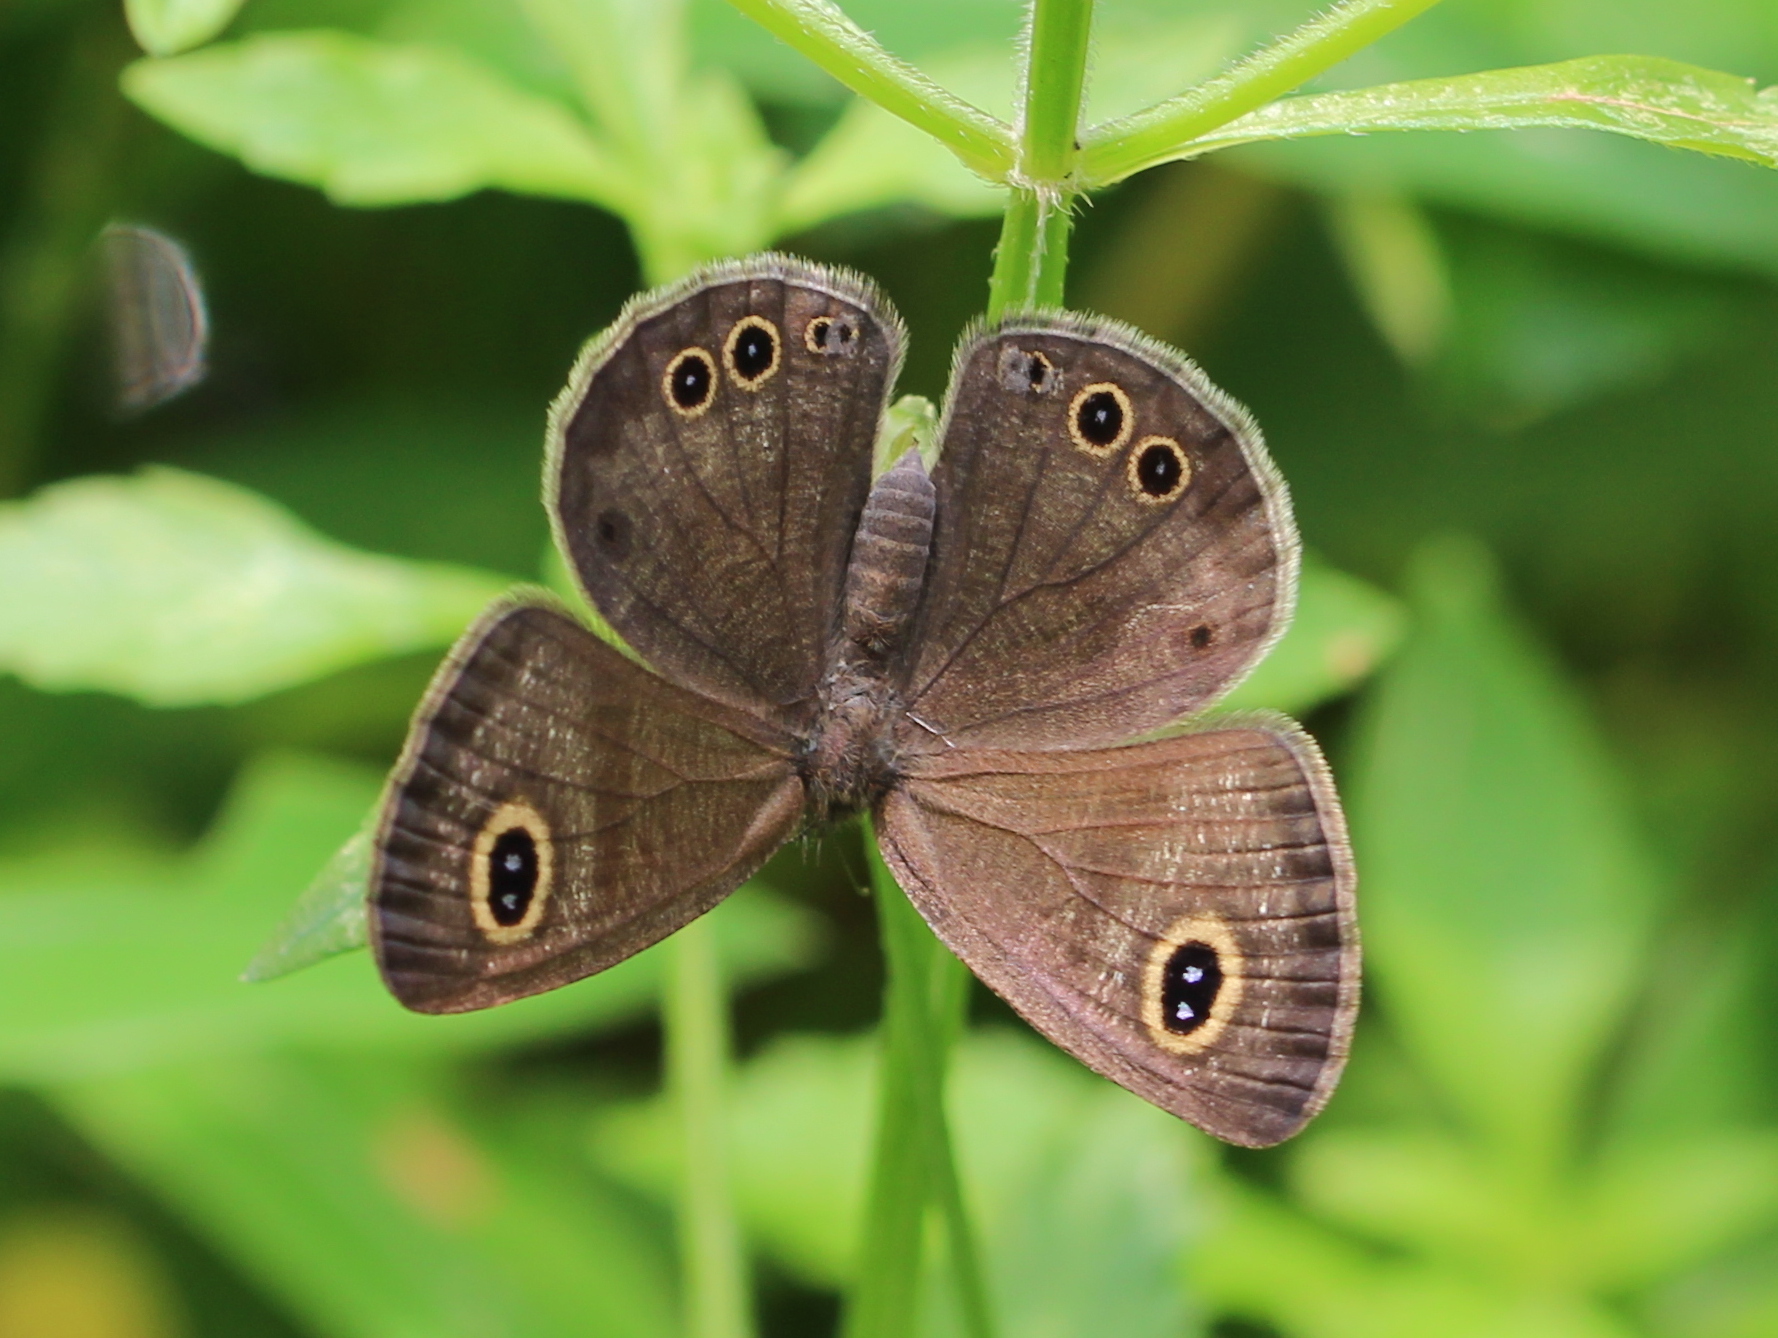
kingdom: Animalia
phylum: Arthropoda
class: Insecta
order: Lepidoptera
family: Nymphalidae
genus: Ypthima
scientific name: Ypthima huebneri
